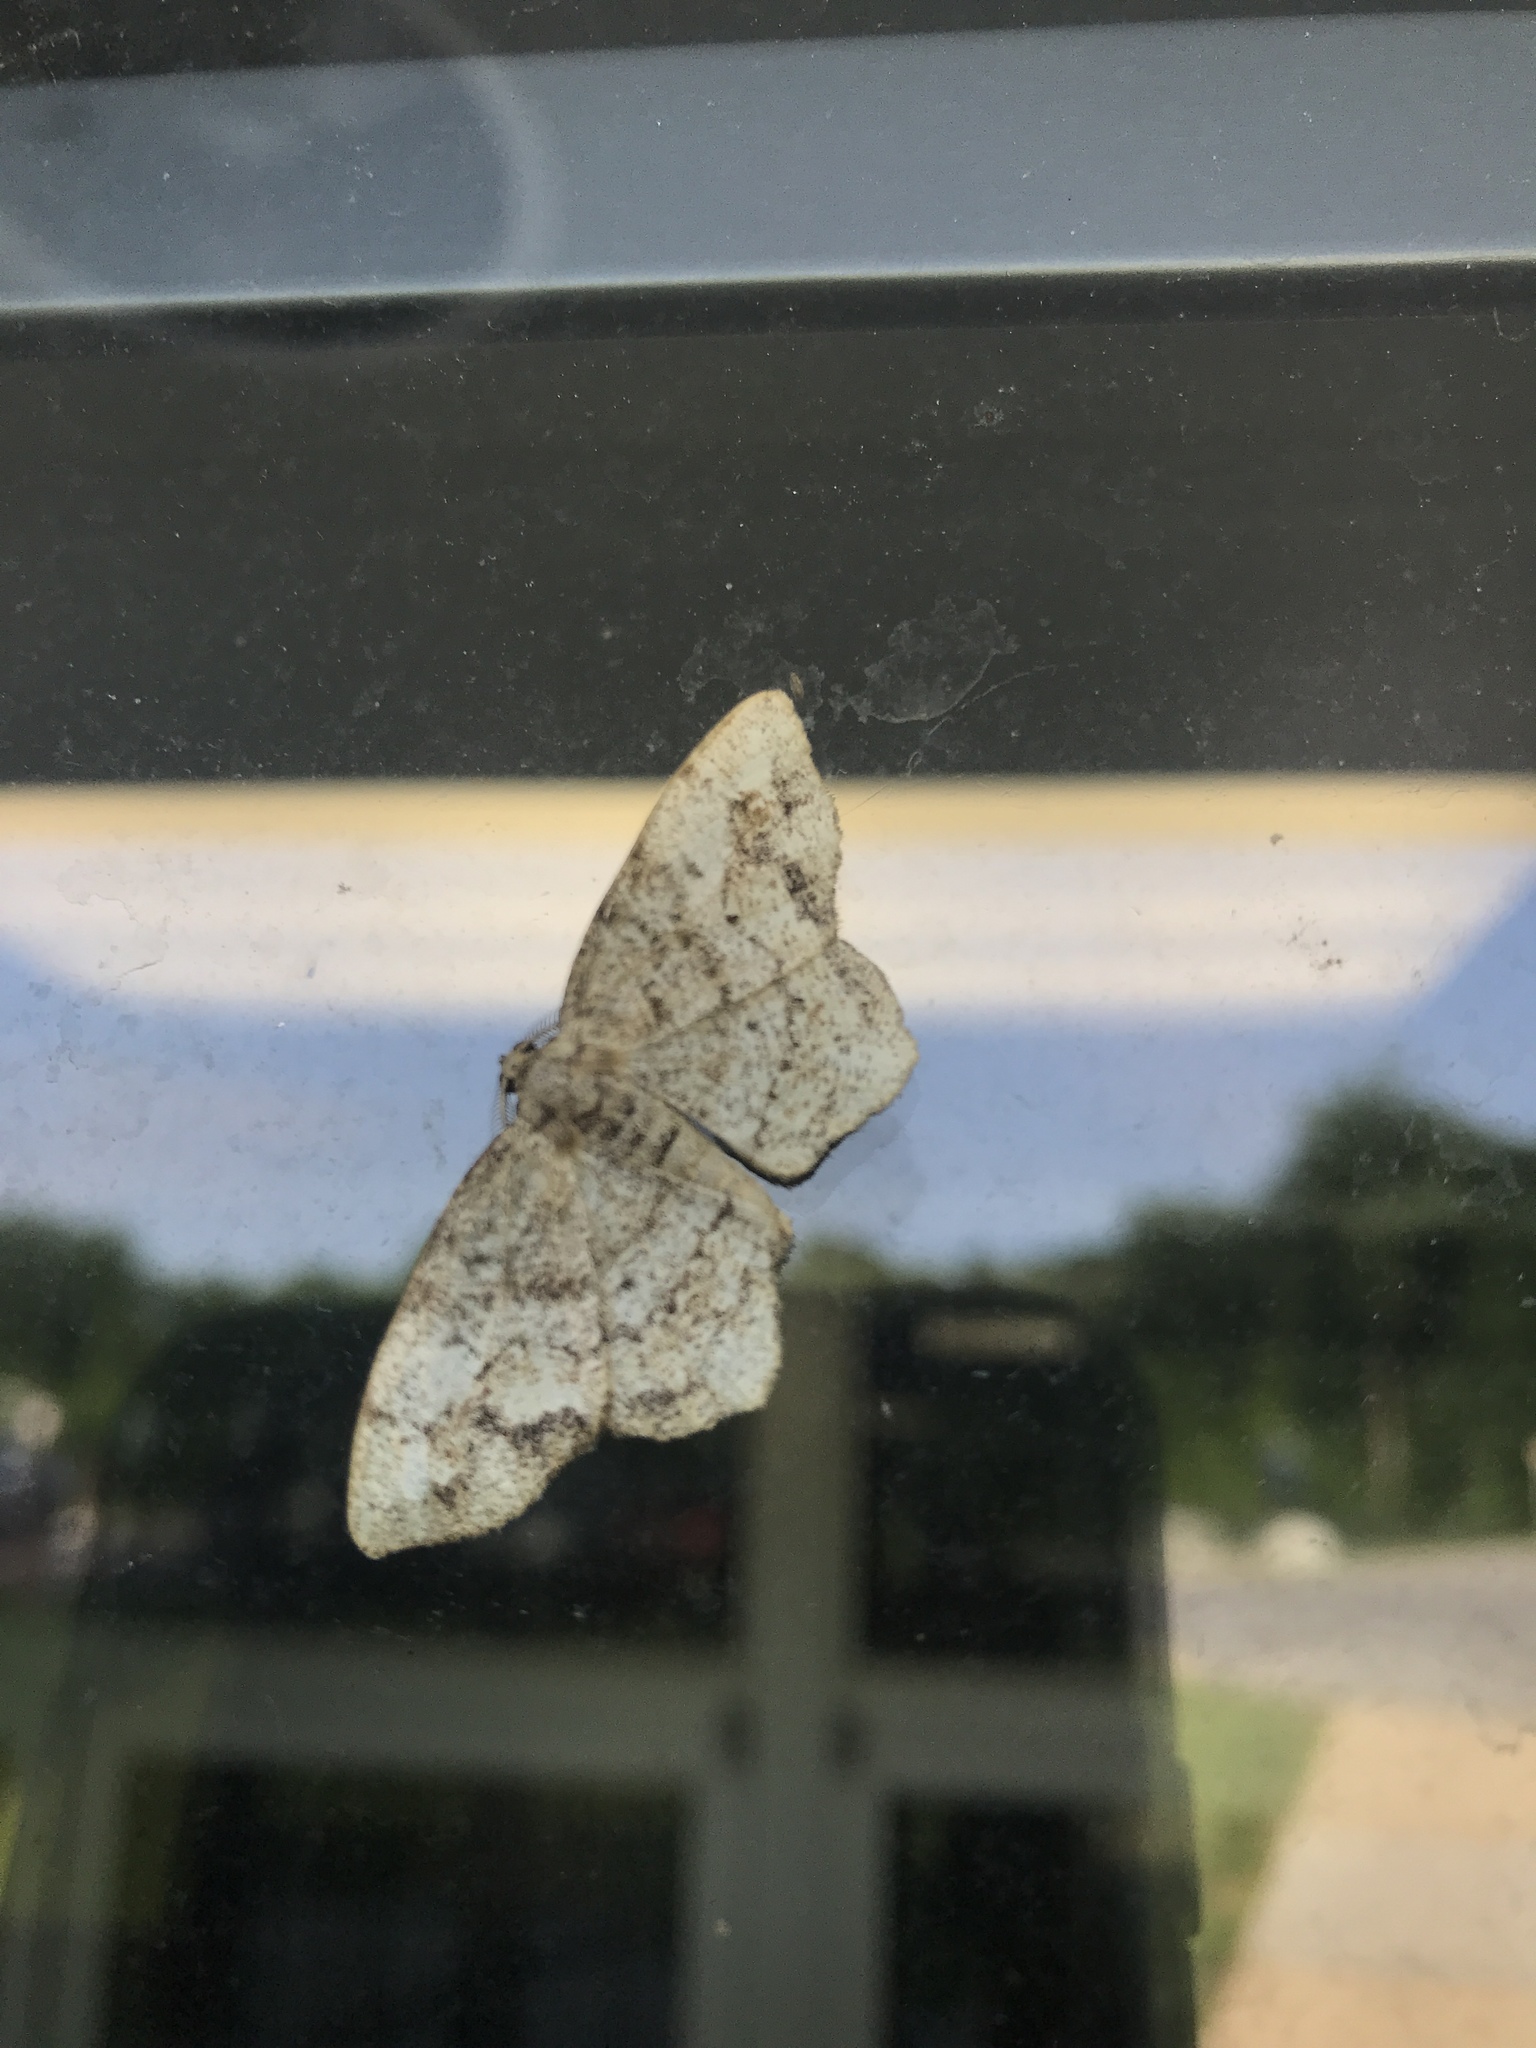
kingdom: Animalia
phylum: Arthropoda
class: Insecta
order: Lepidoptera
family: Geometridae
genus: Hypagyrtis
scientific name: Hypagyrtis unipunctata
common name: One-spotted variant
